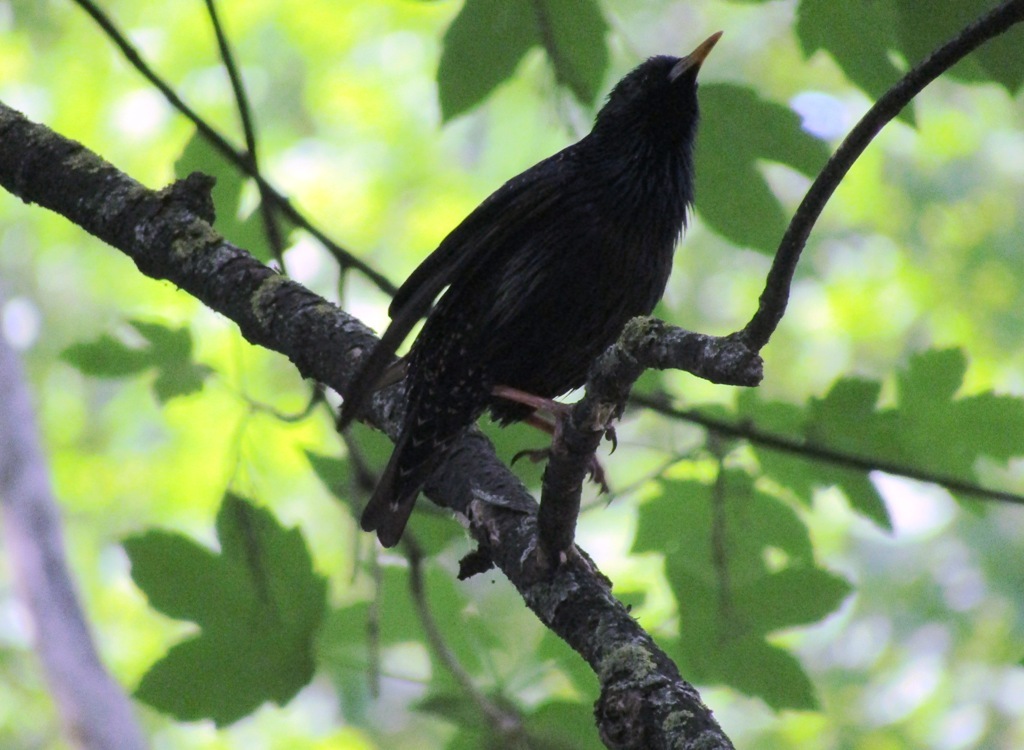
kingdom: Animalia
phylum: Chordata
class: Aves
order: Passeriformes
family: Sturnidae
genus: Sturnus
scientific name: Sturnus vulgaris
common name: Common starling
